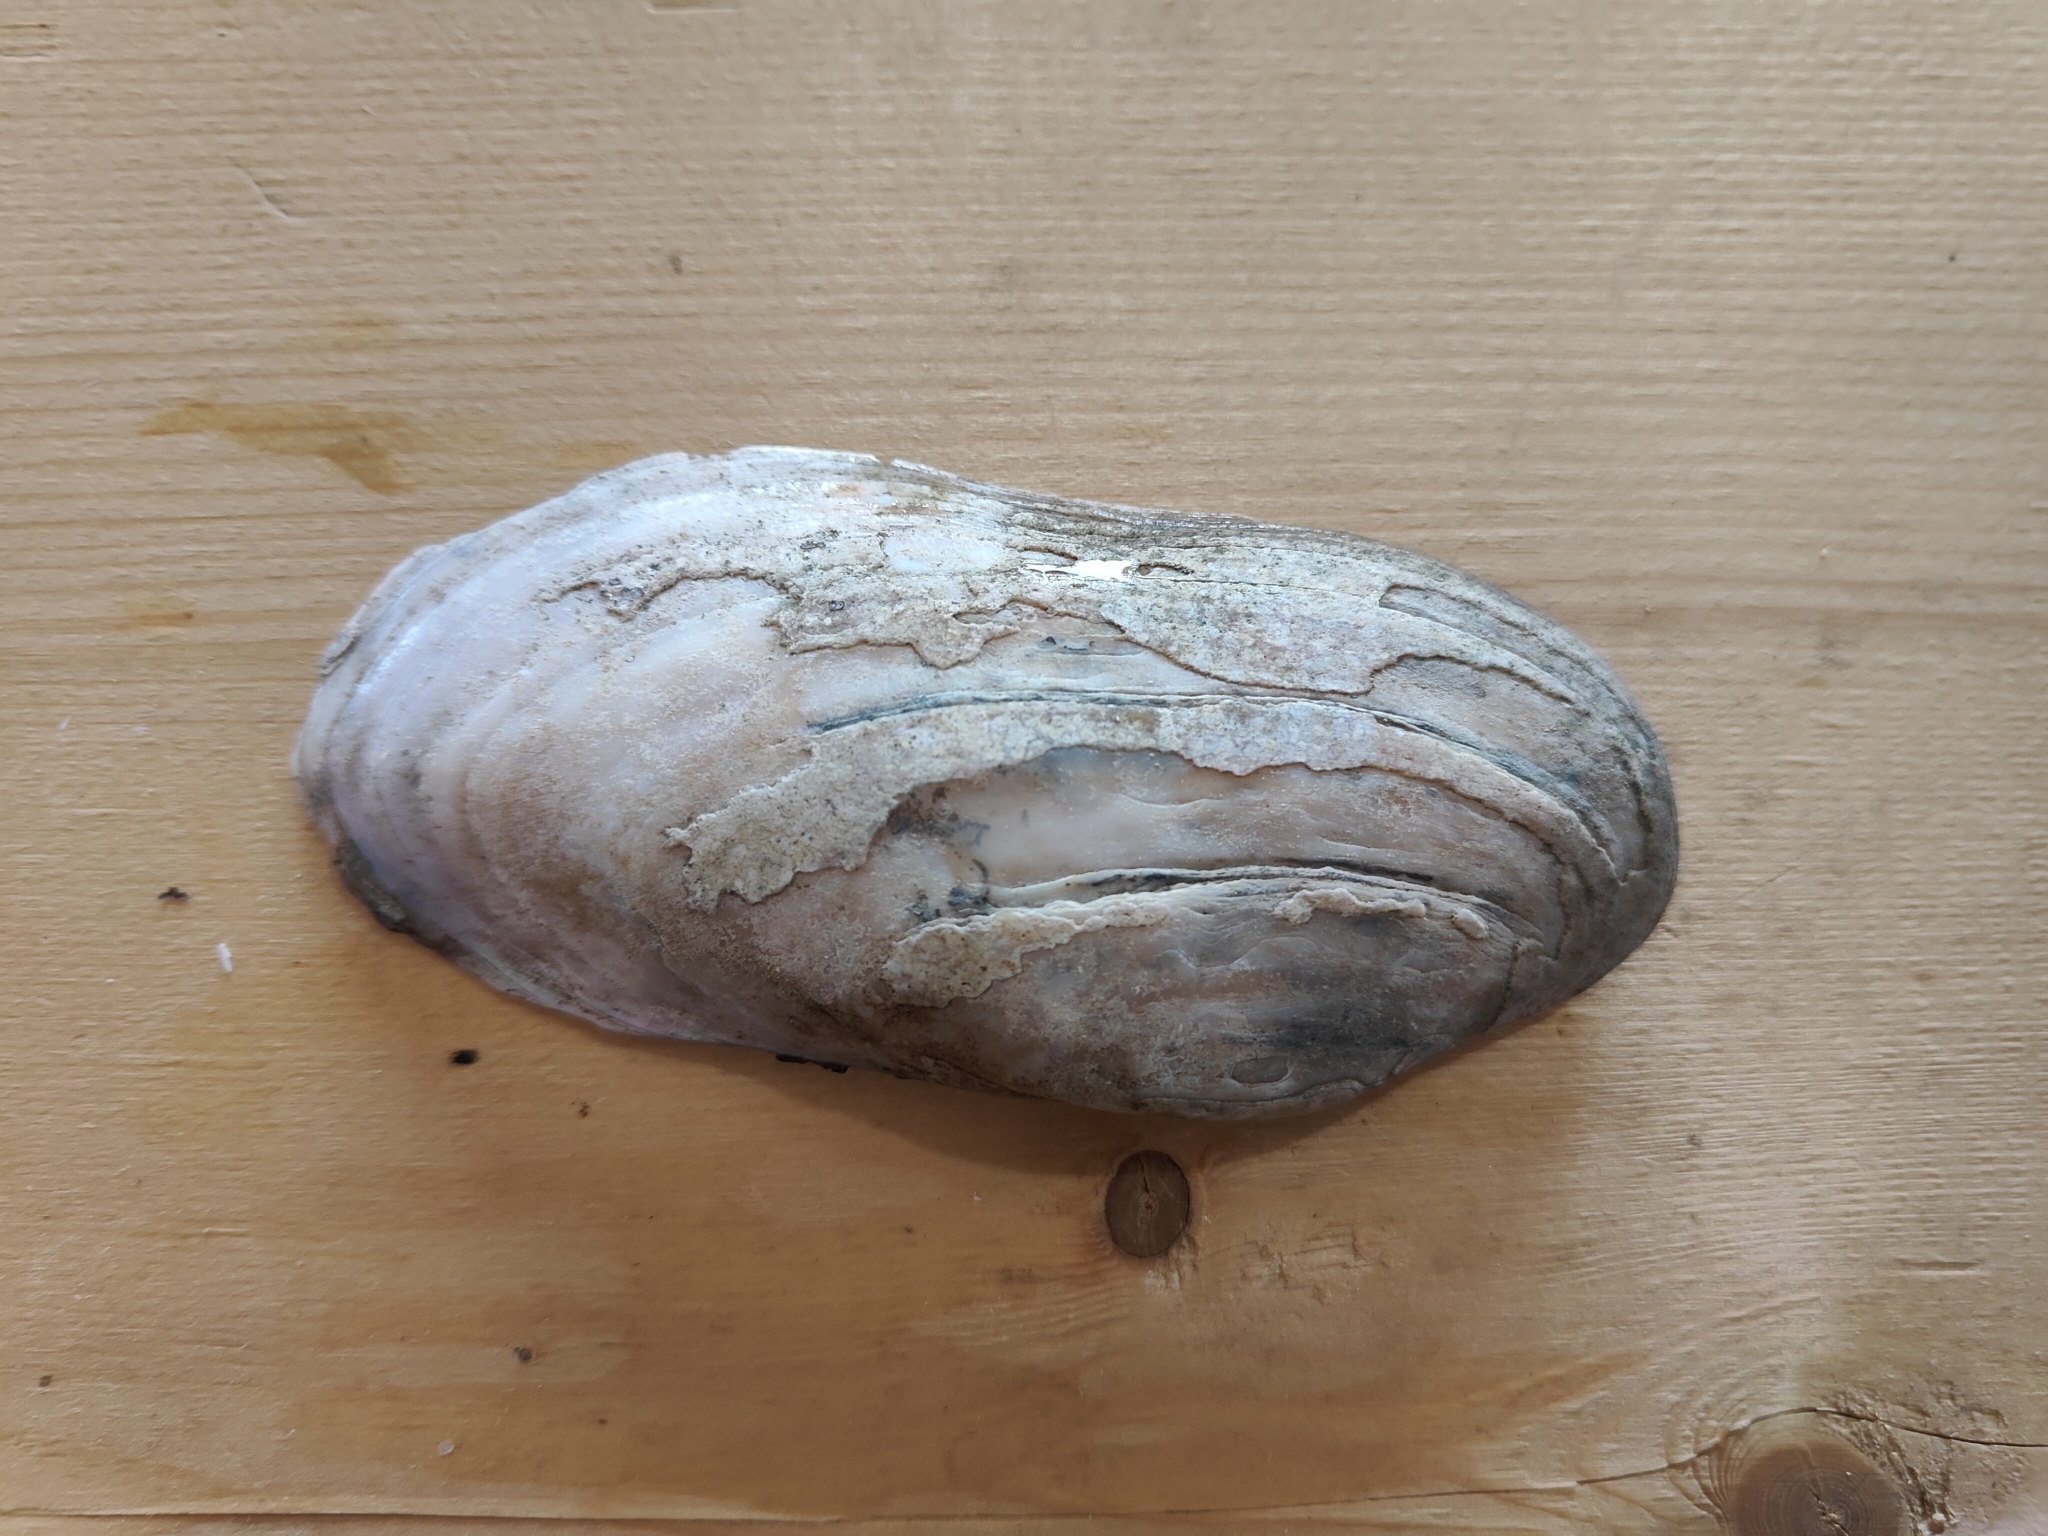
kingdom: Animalia
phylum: Mollusca
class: Bivalvia
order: Unionida
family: Unionidae
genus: Ligumia
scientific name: Ligumia recta
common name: Black sandshell
